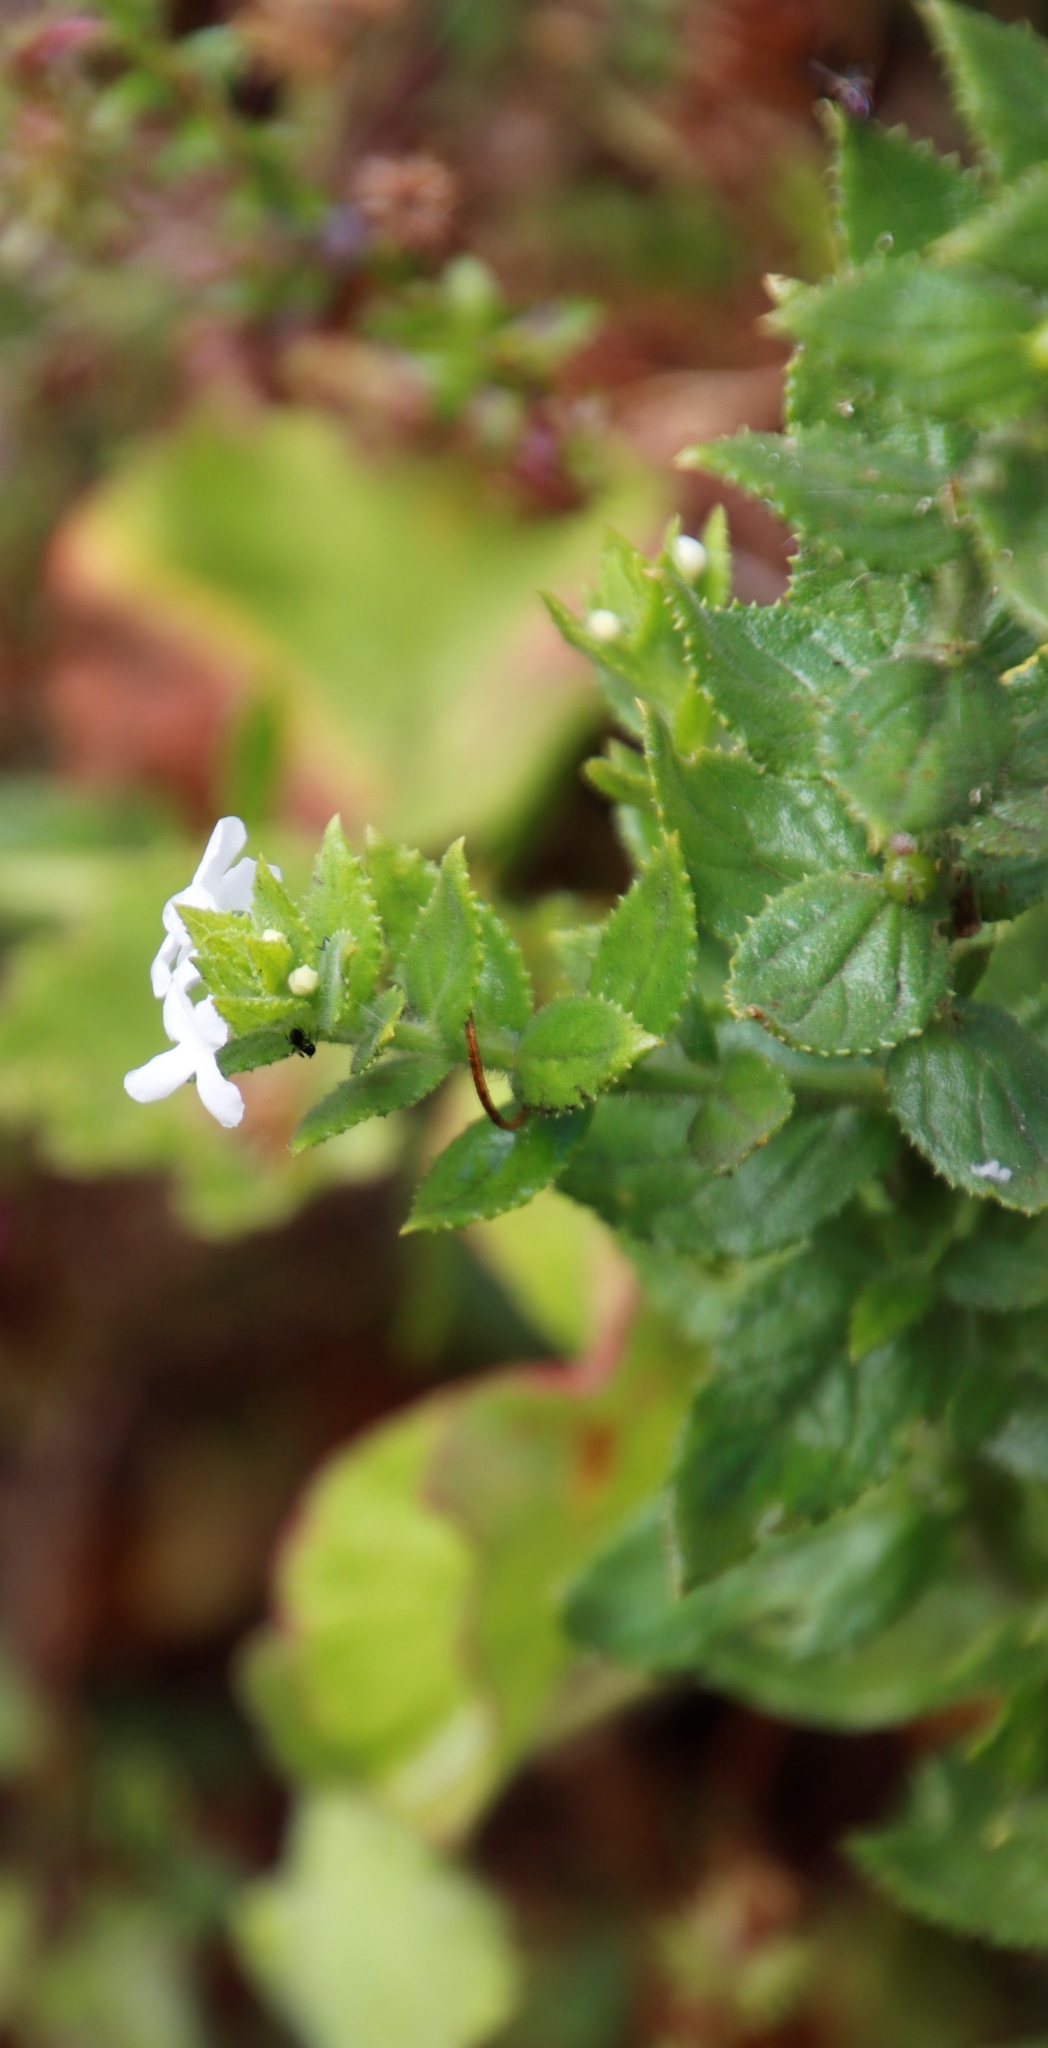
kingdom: Plantae
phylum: Tracheophyta
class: Magnoliopsida
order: Lamiales
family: Scrophulariaceae
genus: Oftia
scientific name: Oftia africana
